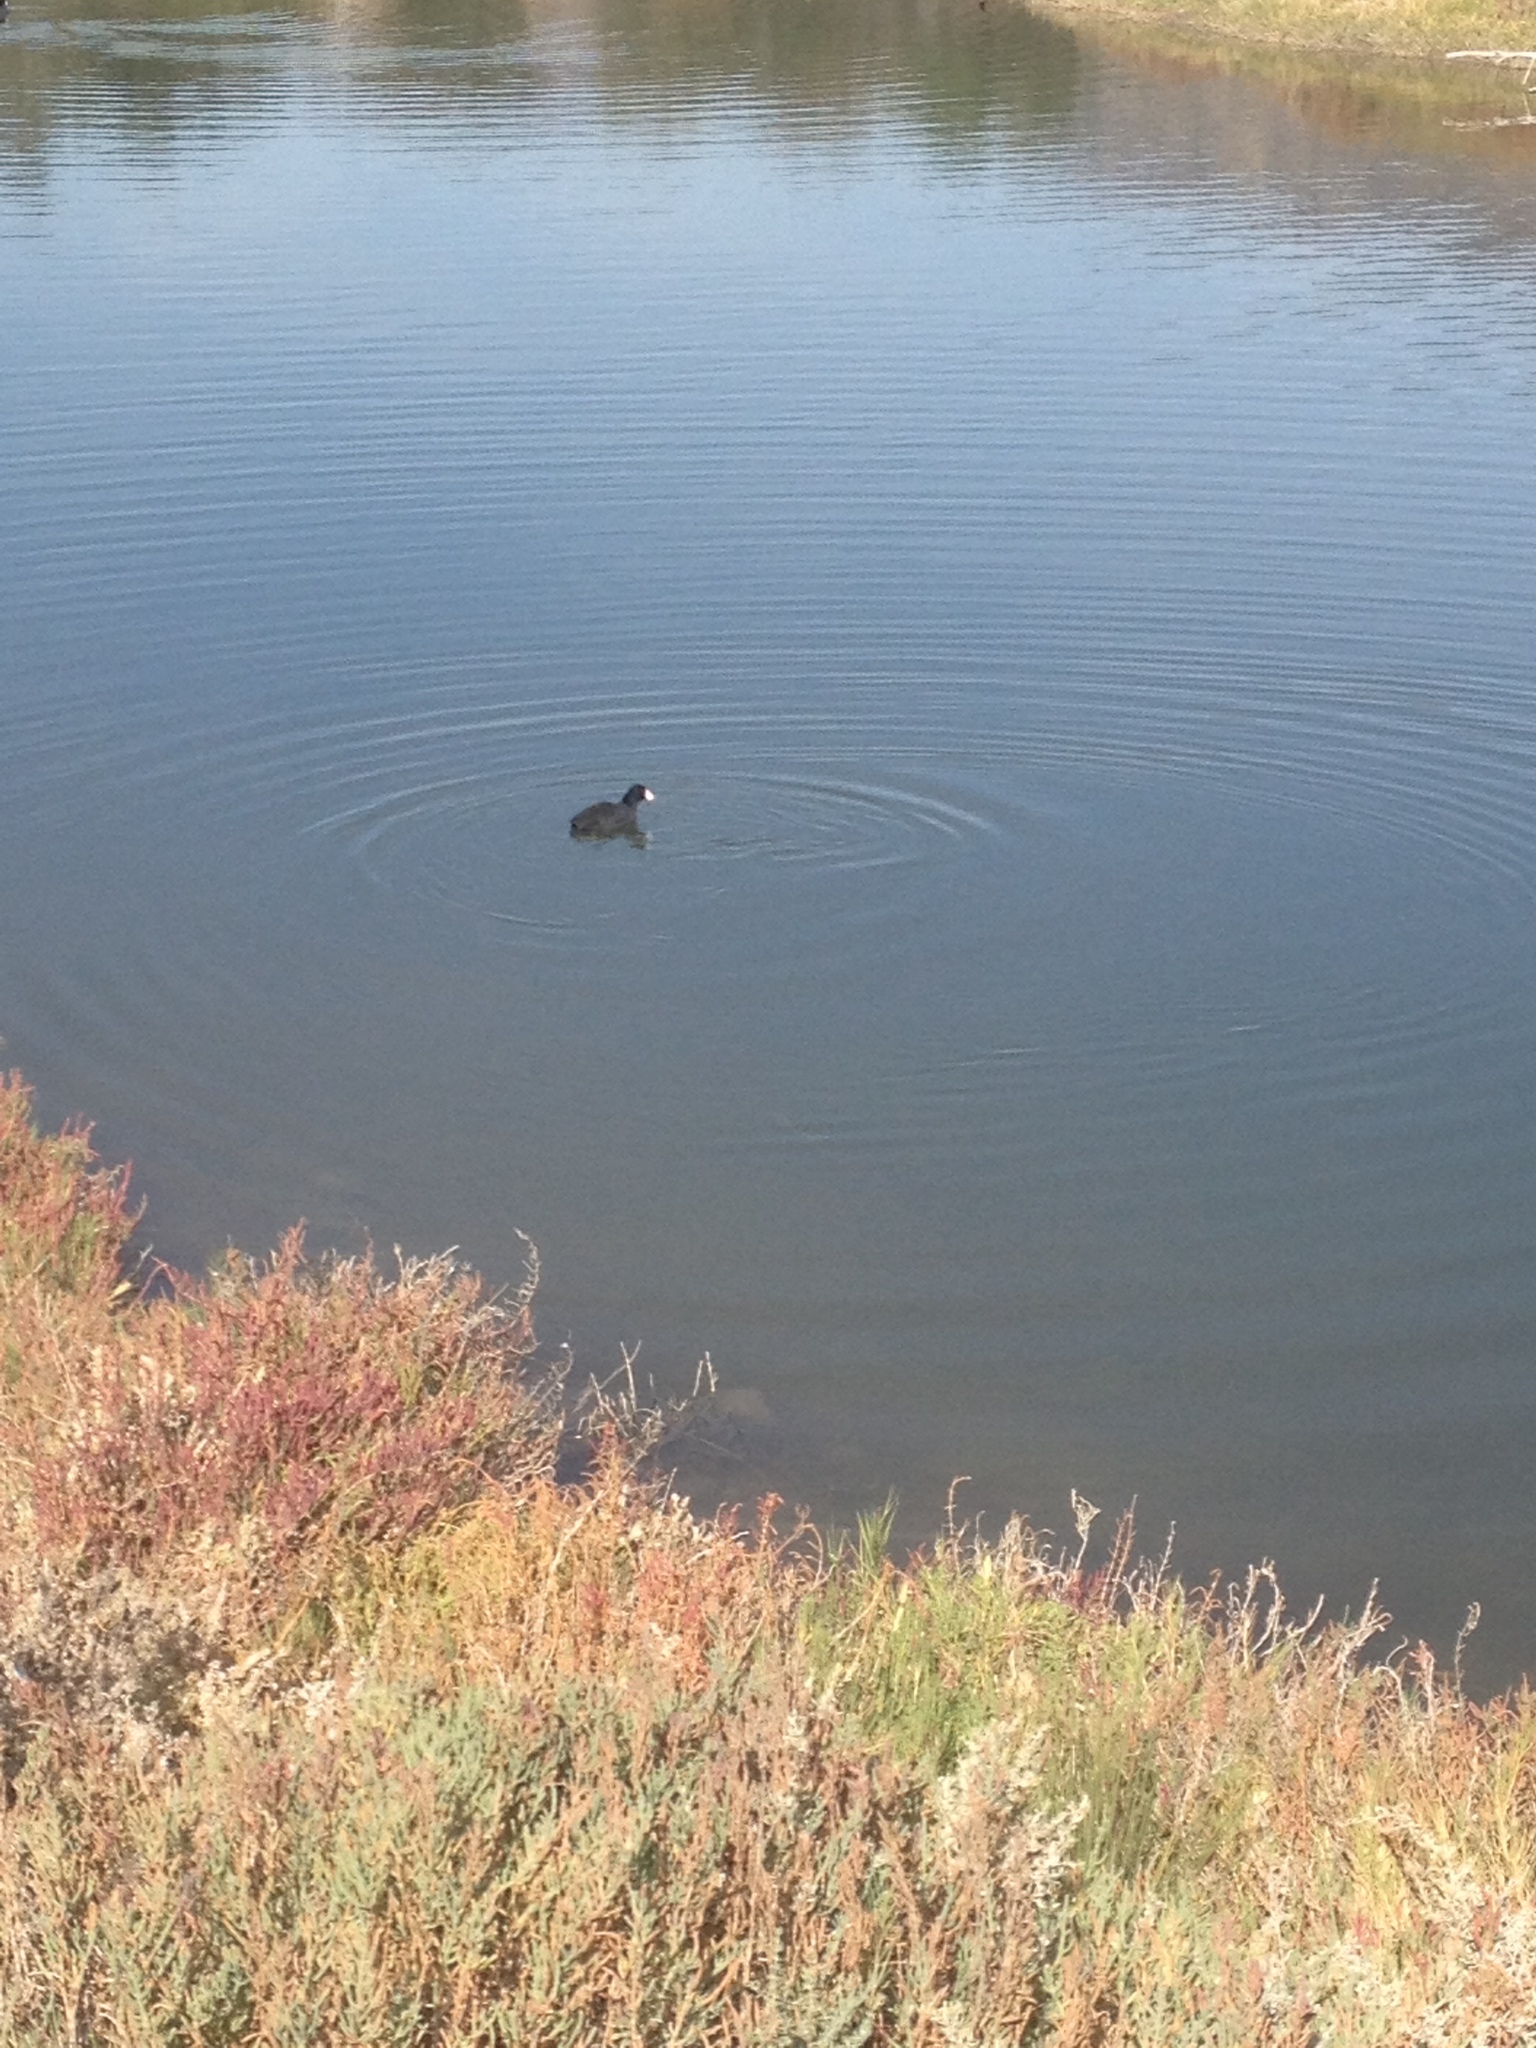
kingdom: Animalia
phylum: Chordata
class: Aves
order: Gruiformes
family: Rallidae
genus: Fulica
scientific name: Fulica americana
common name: American coot
